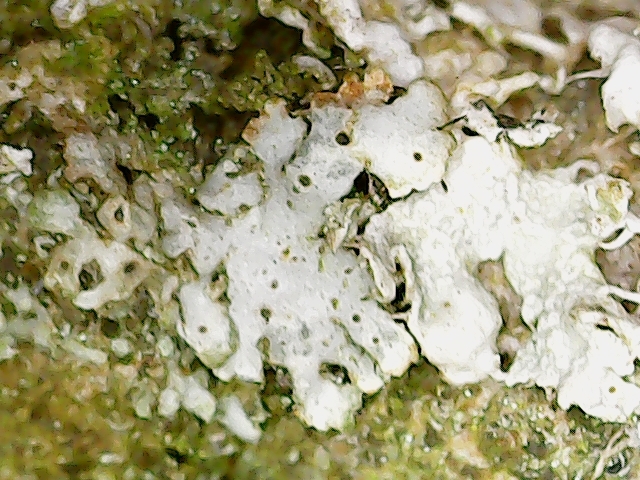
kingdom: Fungi
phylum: Ascomycota
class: Lecanoromycetes
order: Caliciales
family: Physciaceae
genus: Physcia
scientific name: Physcia adscendens
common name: Hooded rosette lichen
